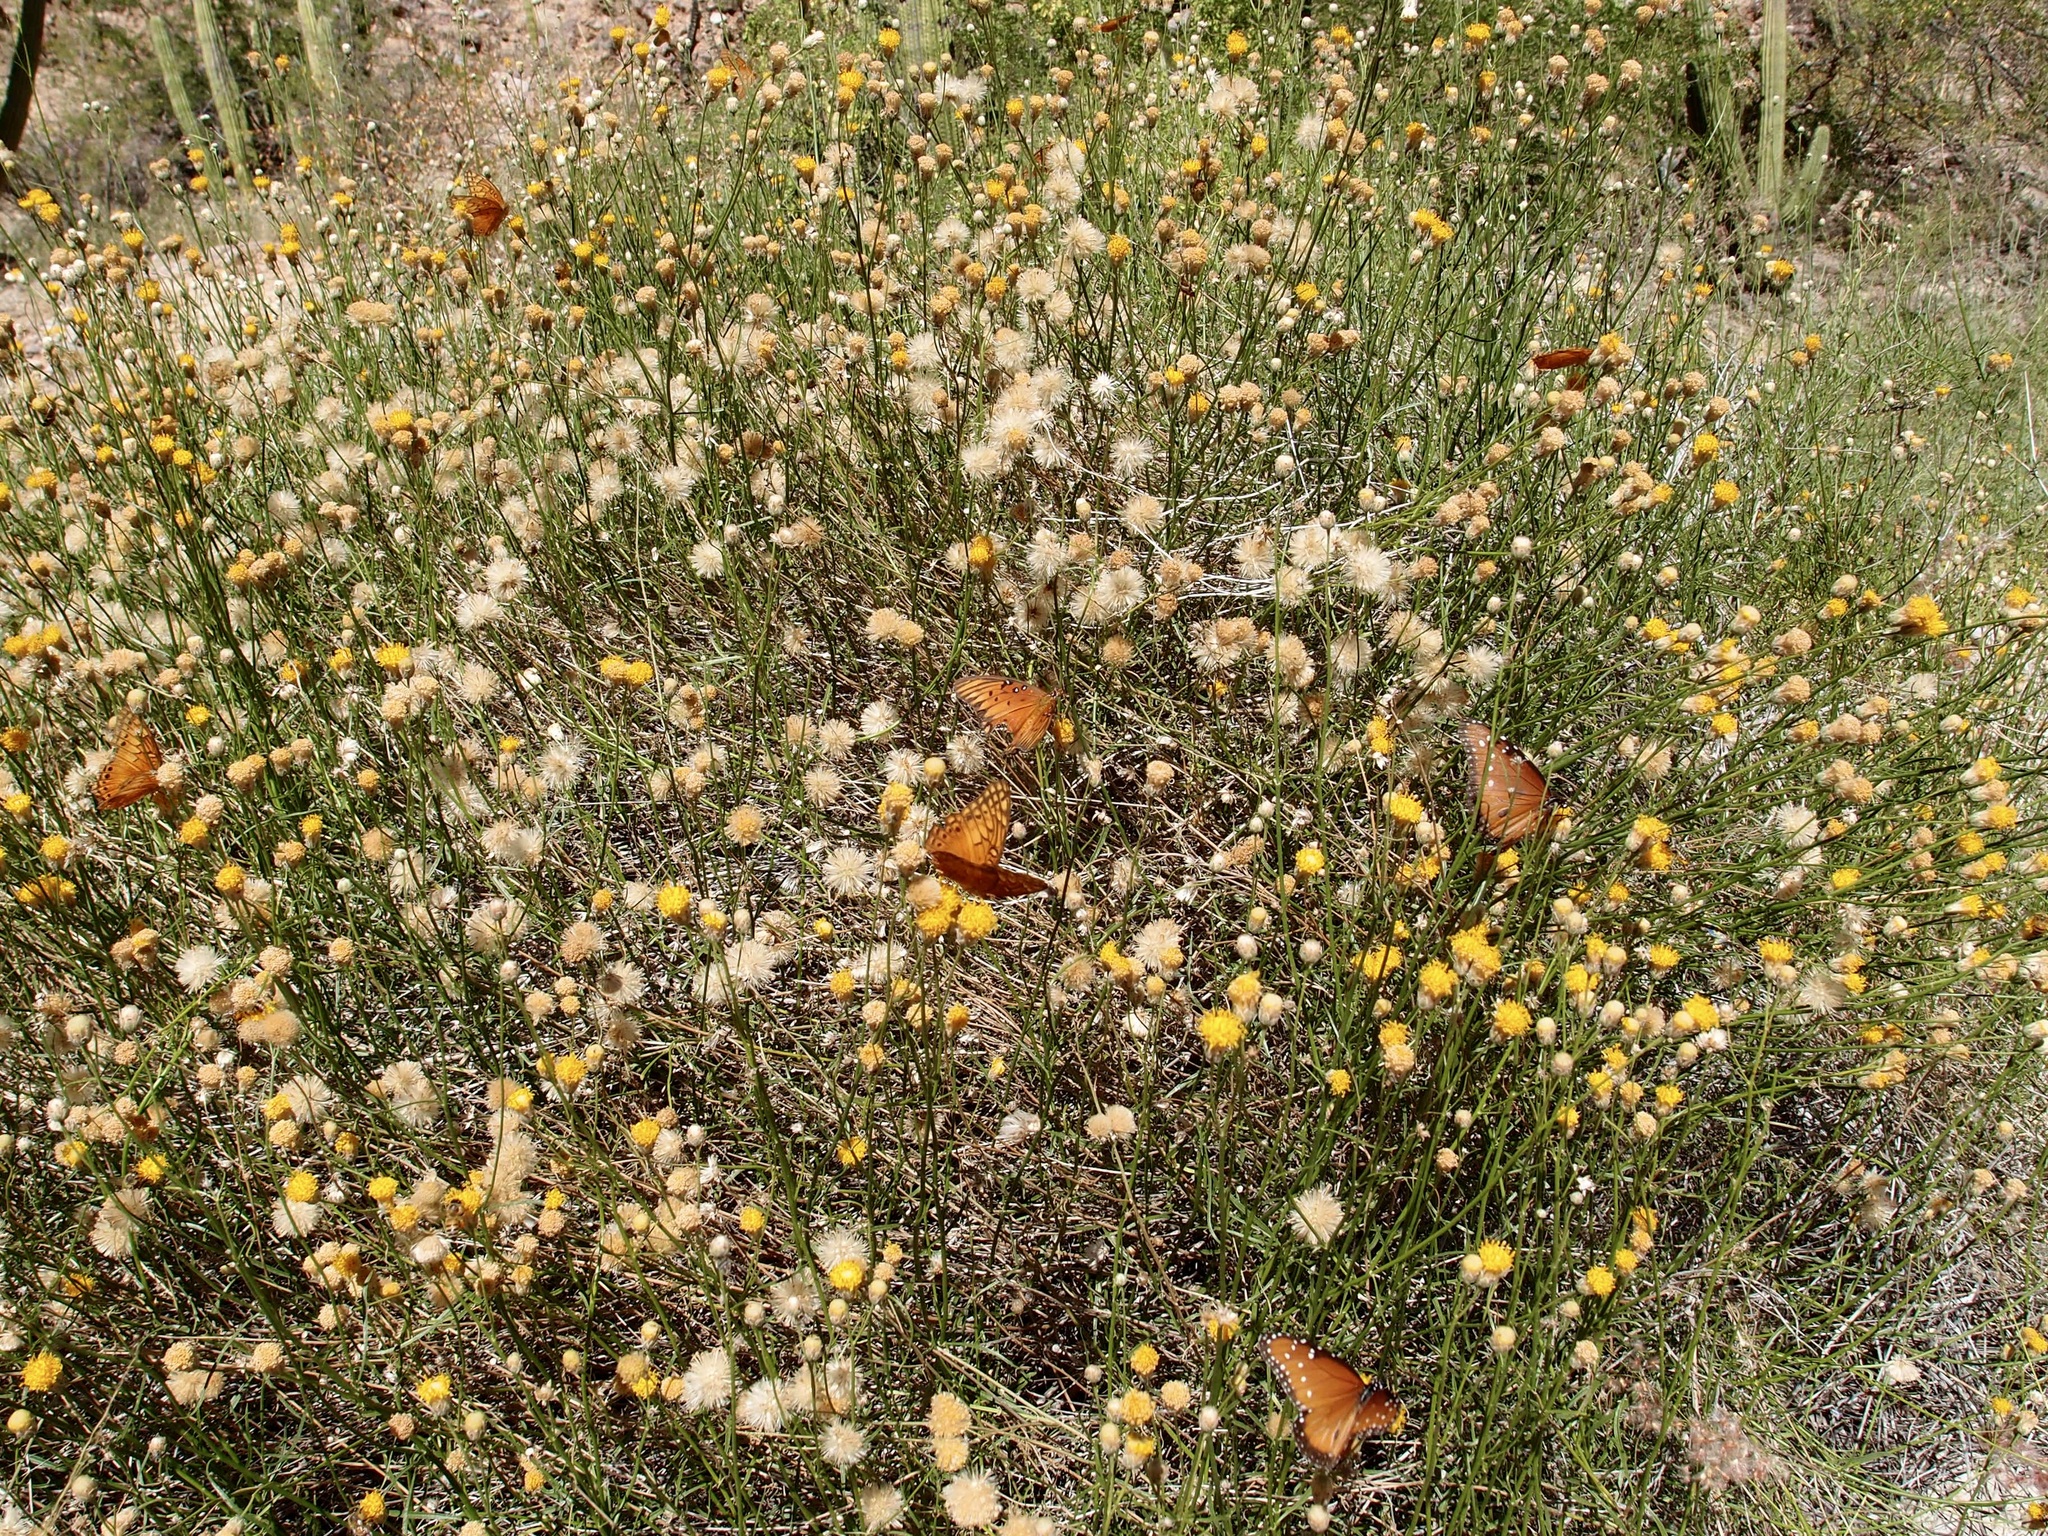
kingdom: Plantae
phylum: Tracheophyta
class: Magnoliopsida
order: Asterales
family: Asteraceae
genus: Bebbia
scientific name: Bebbia juncea
